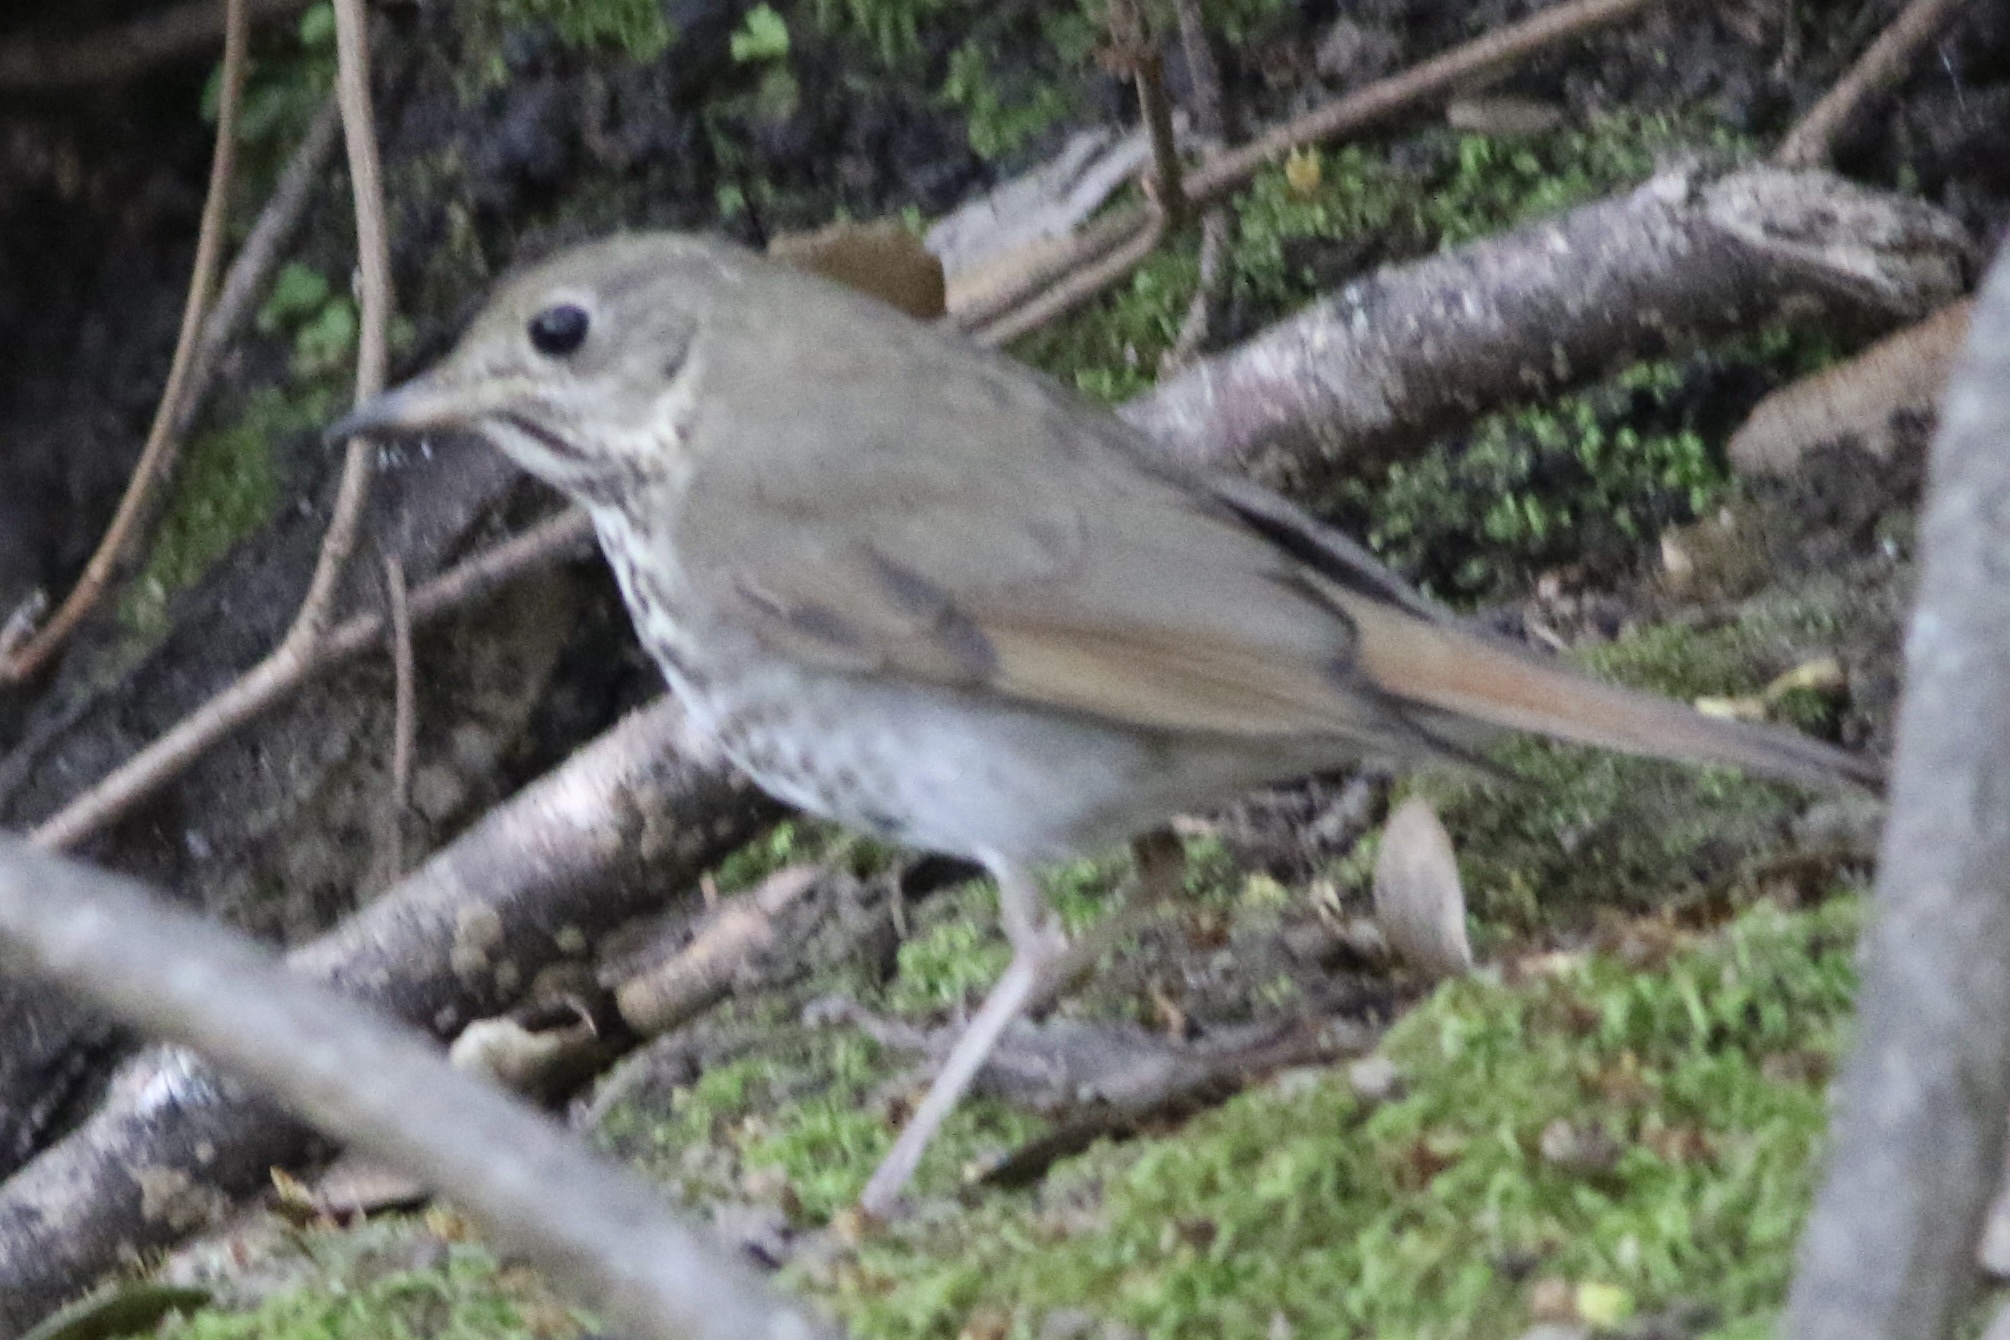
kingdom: Animalia
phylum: Chordata
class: Aves
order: Passeriformes
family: Turdidae
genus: Catharus
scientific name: Catharus guttatus
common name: Hermit thrush
